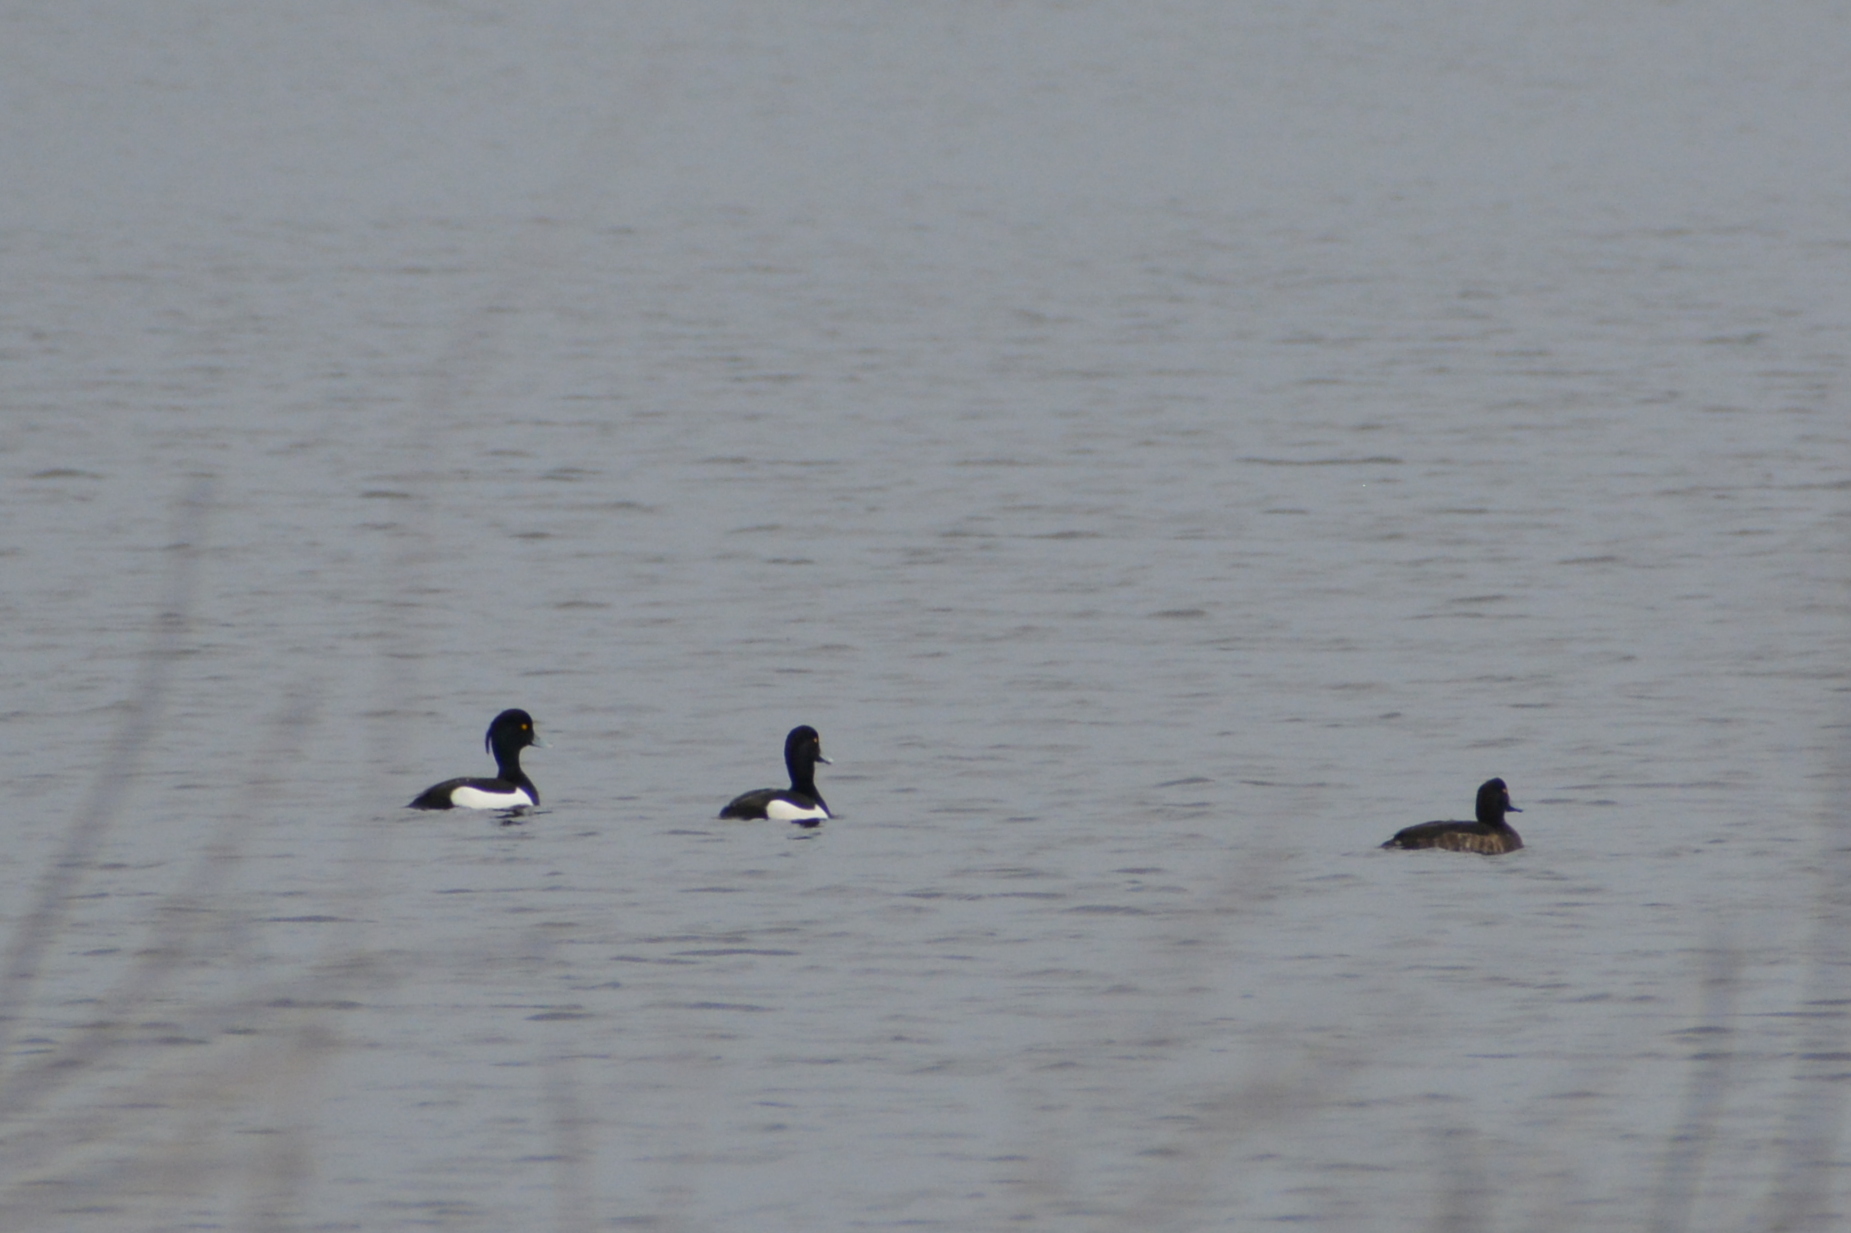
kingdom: Animalia
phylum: Chordata
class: Aves
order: Anseriformes
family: Anatidae
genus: Aythya
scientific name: Aythya fuligula
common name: Tufted duck
